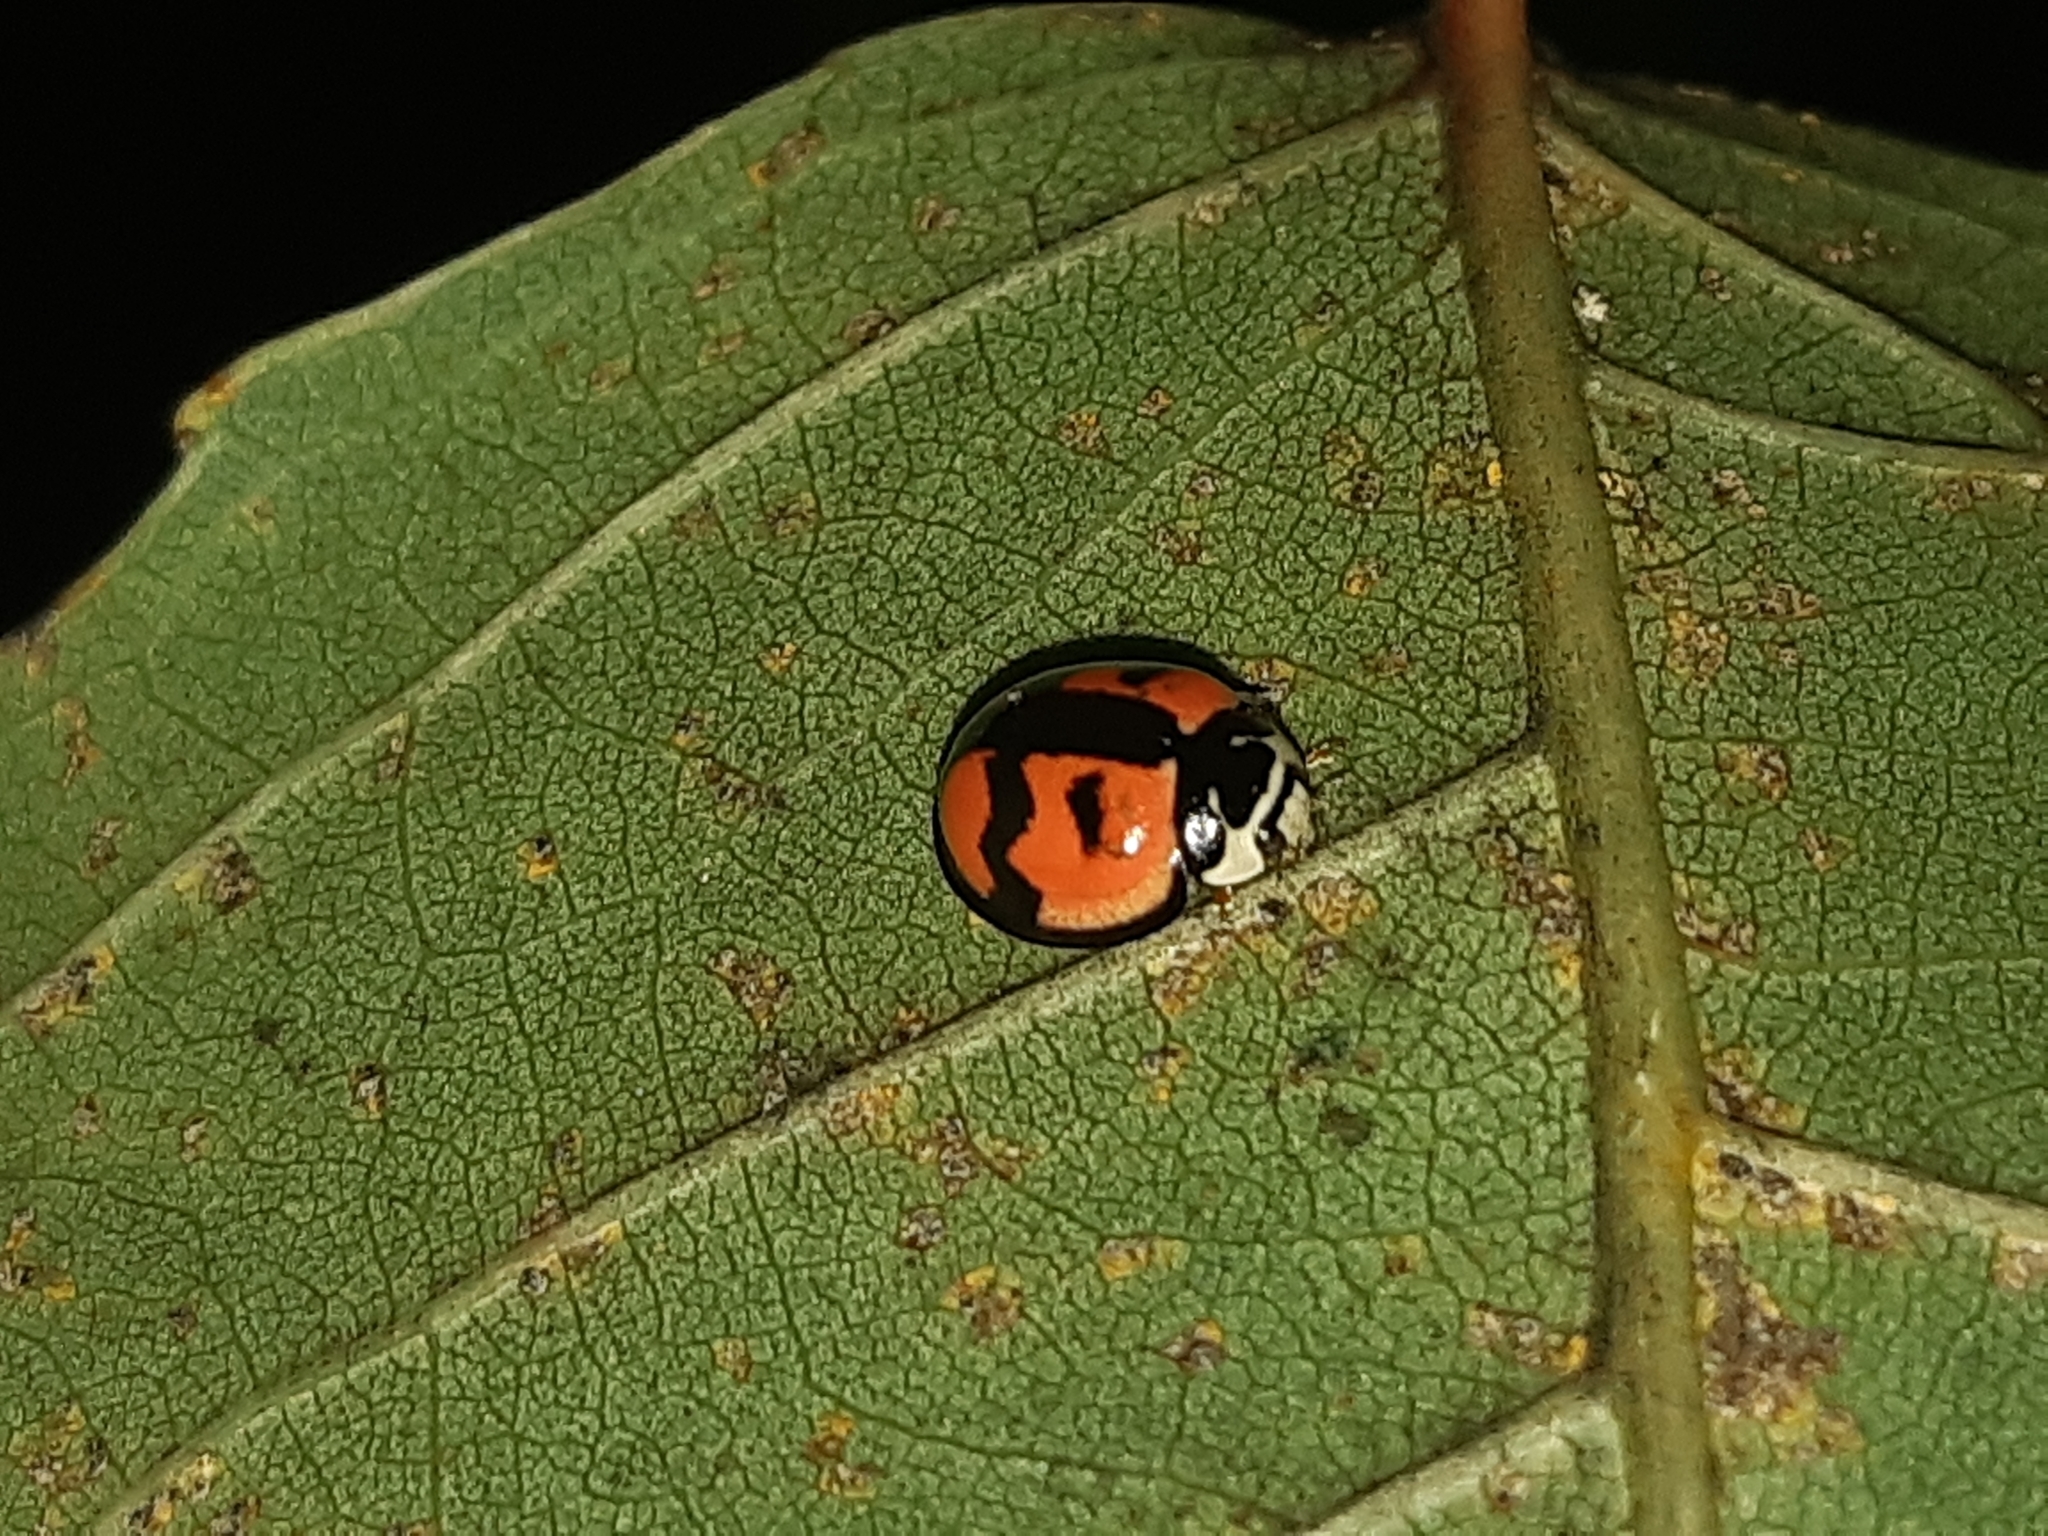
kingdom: Animalia
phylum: Arthropoda
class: Insecta
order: Coleoptera
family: Coccinellidae
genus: Cheilomenes
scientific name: Cheilomenes sexmaculata
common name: Ladybird beetle
